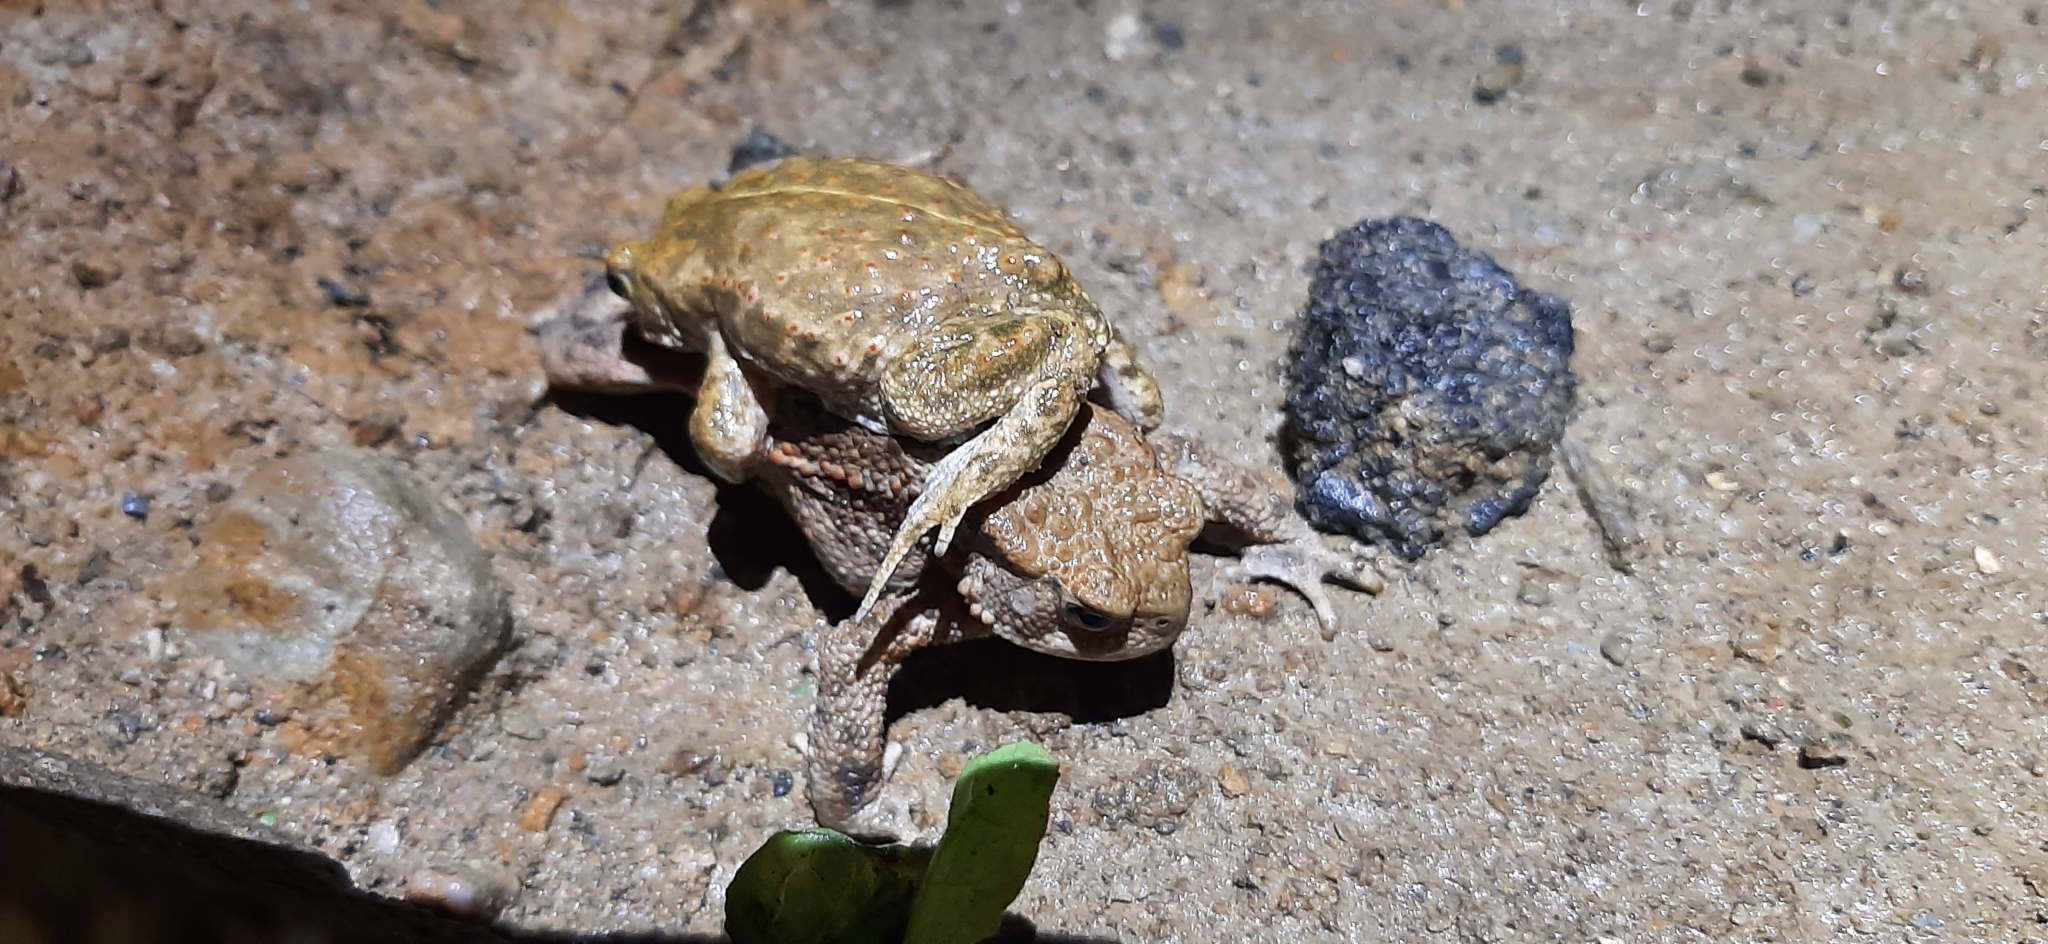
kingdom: Animalia
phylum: Chordata
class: Amphibia
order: Anura
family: Bufonidae
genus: Bufo
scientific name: Bufo bufo
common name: Common toad
